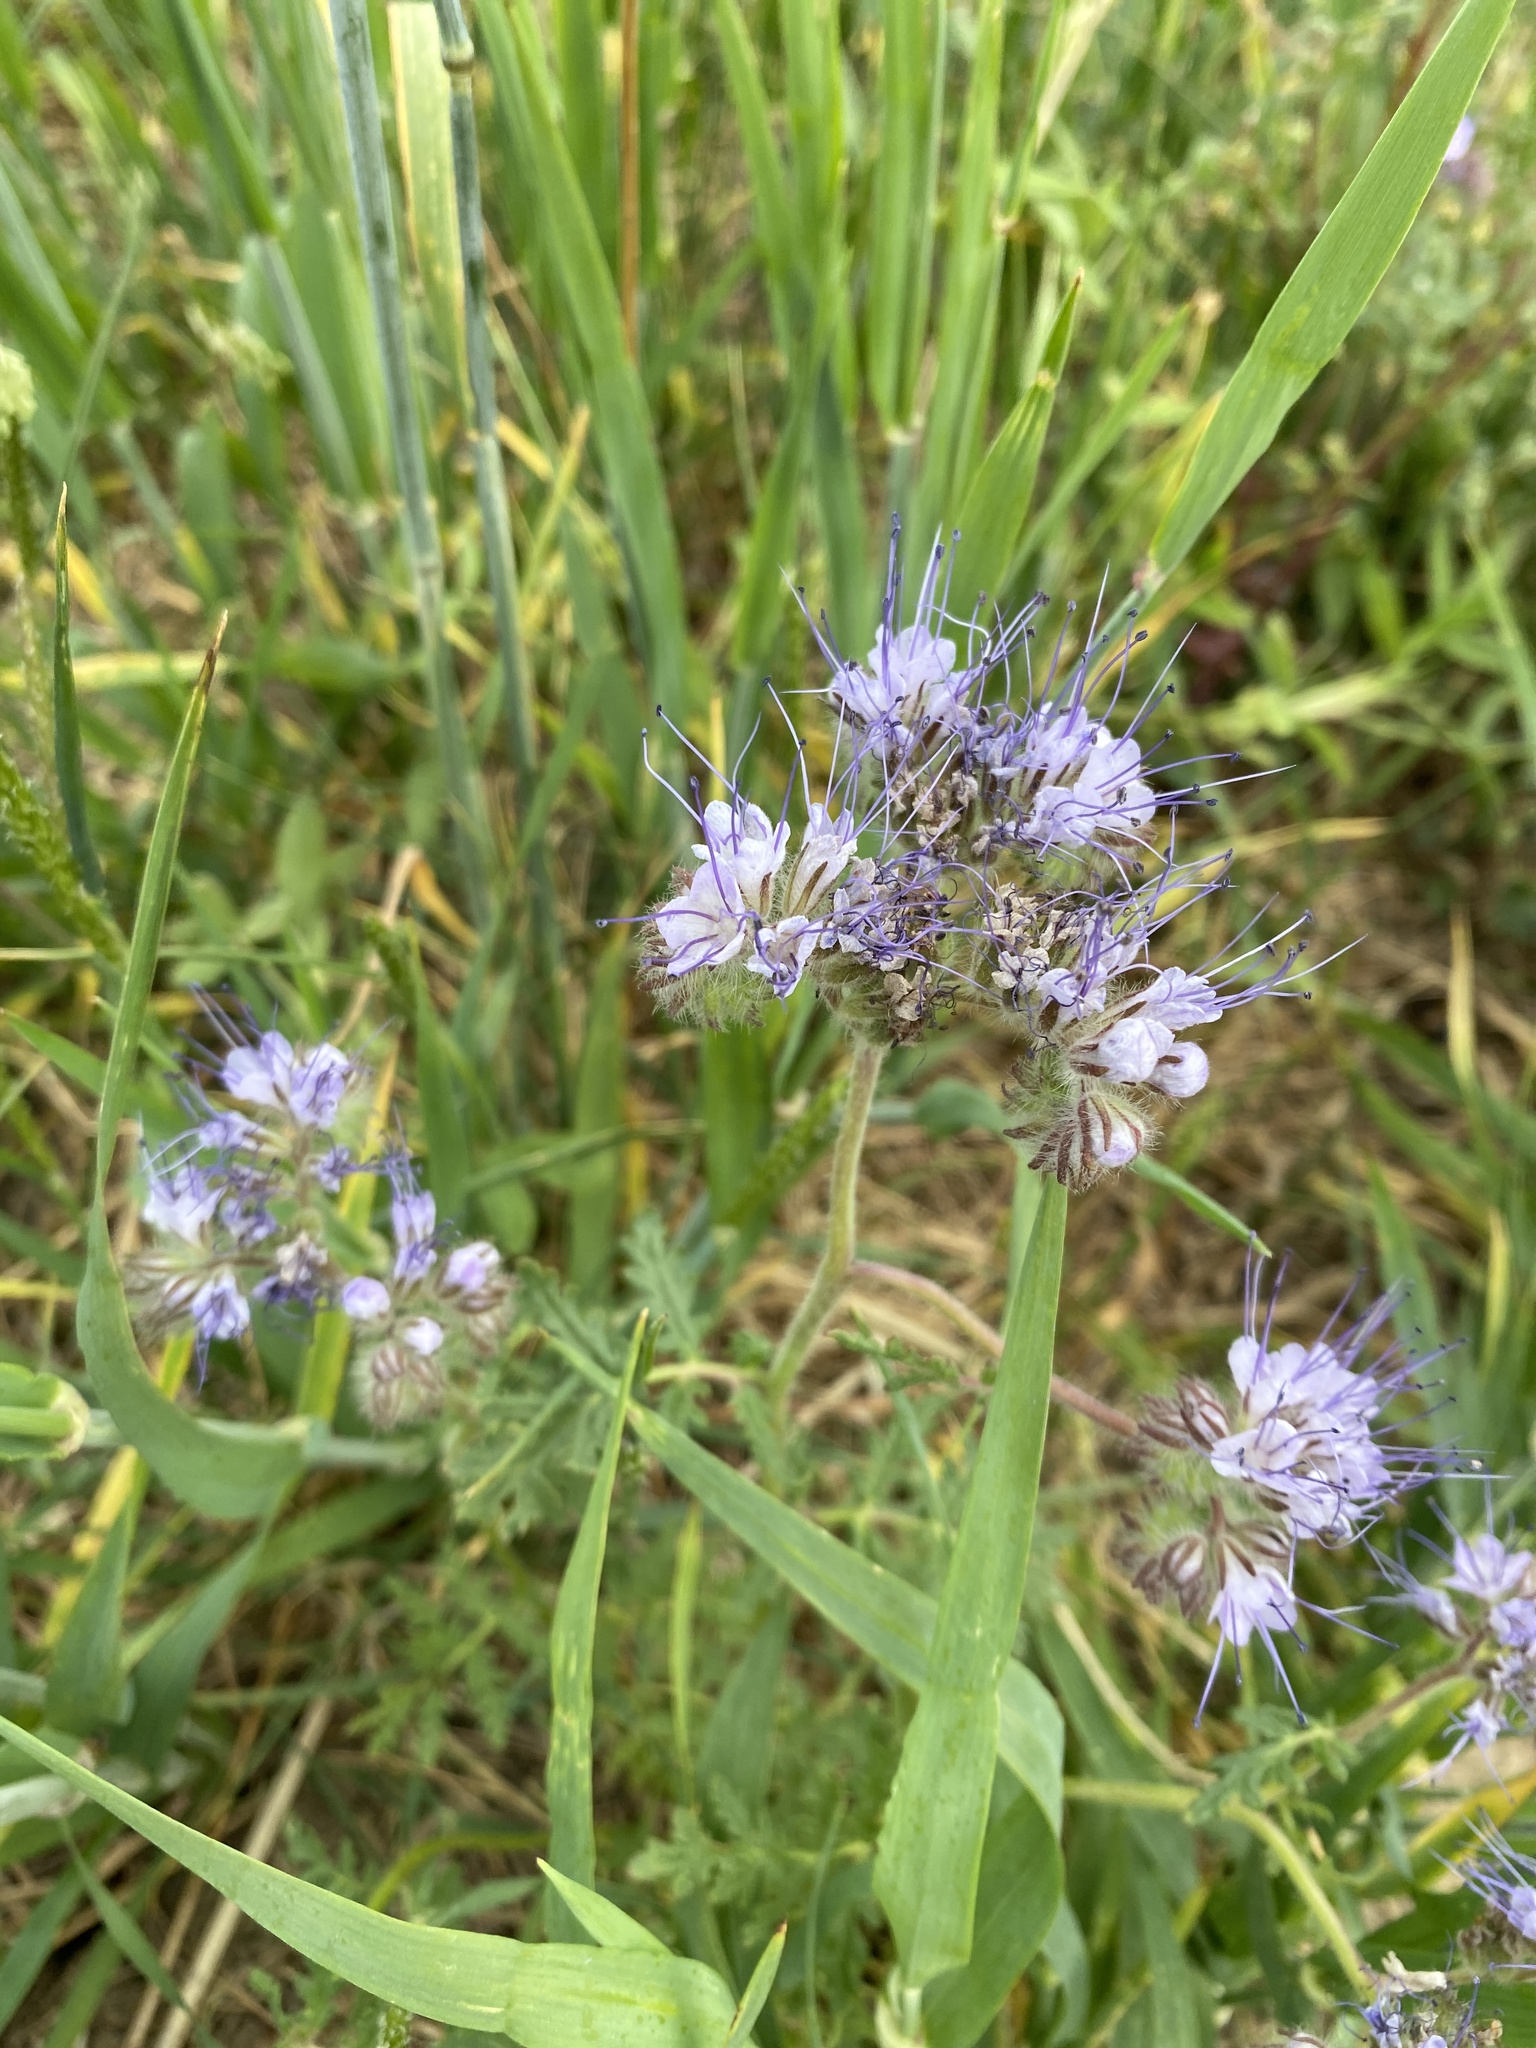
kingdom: Plantae
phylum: Tracheophyta
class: Magnoliopsida
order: Boraginales
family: Hydrophyllaceae
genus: Phacelia
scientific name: Phacelia tanacetifolia
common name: Phacelia
